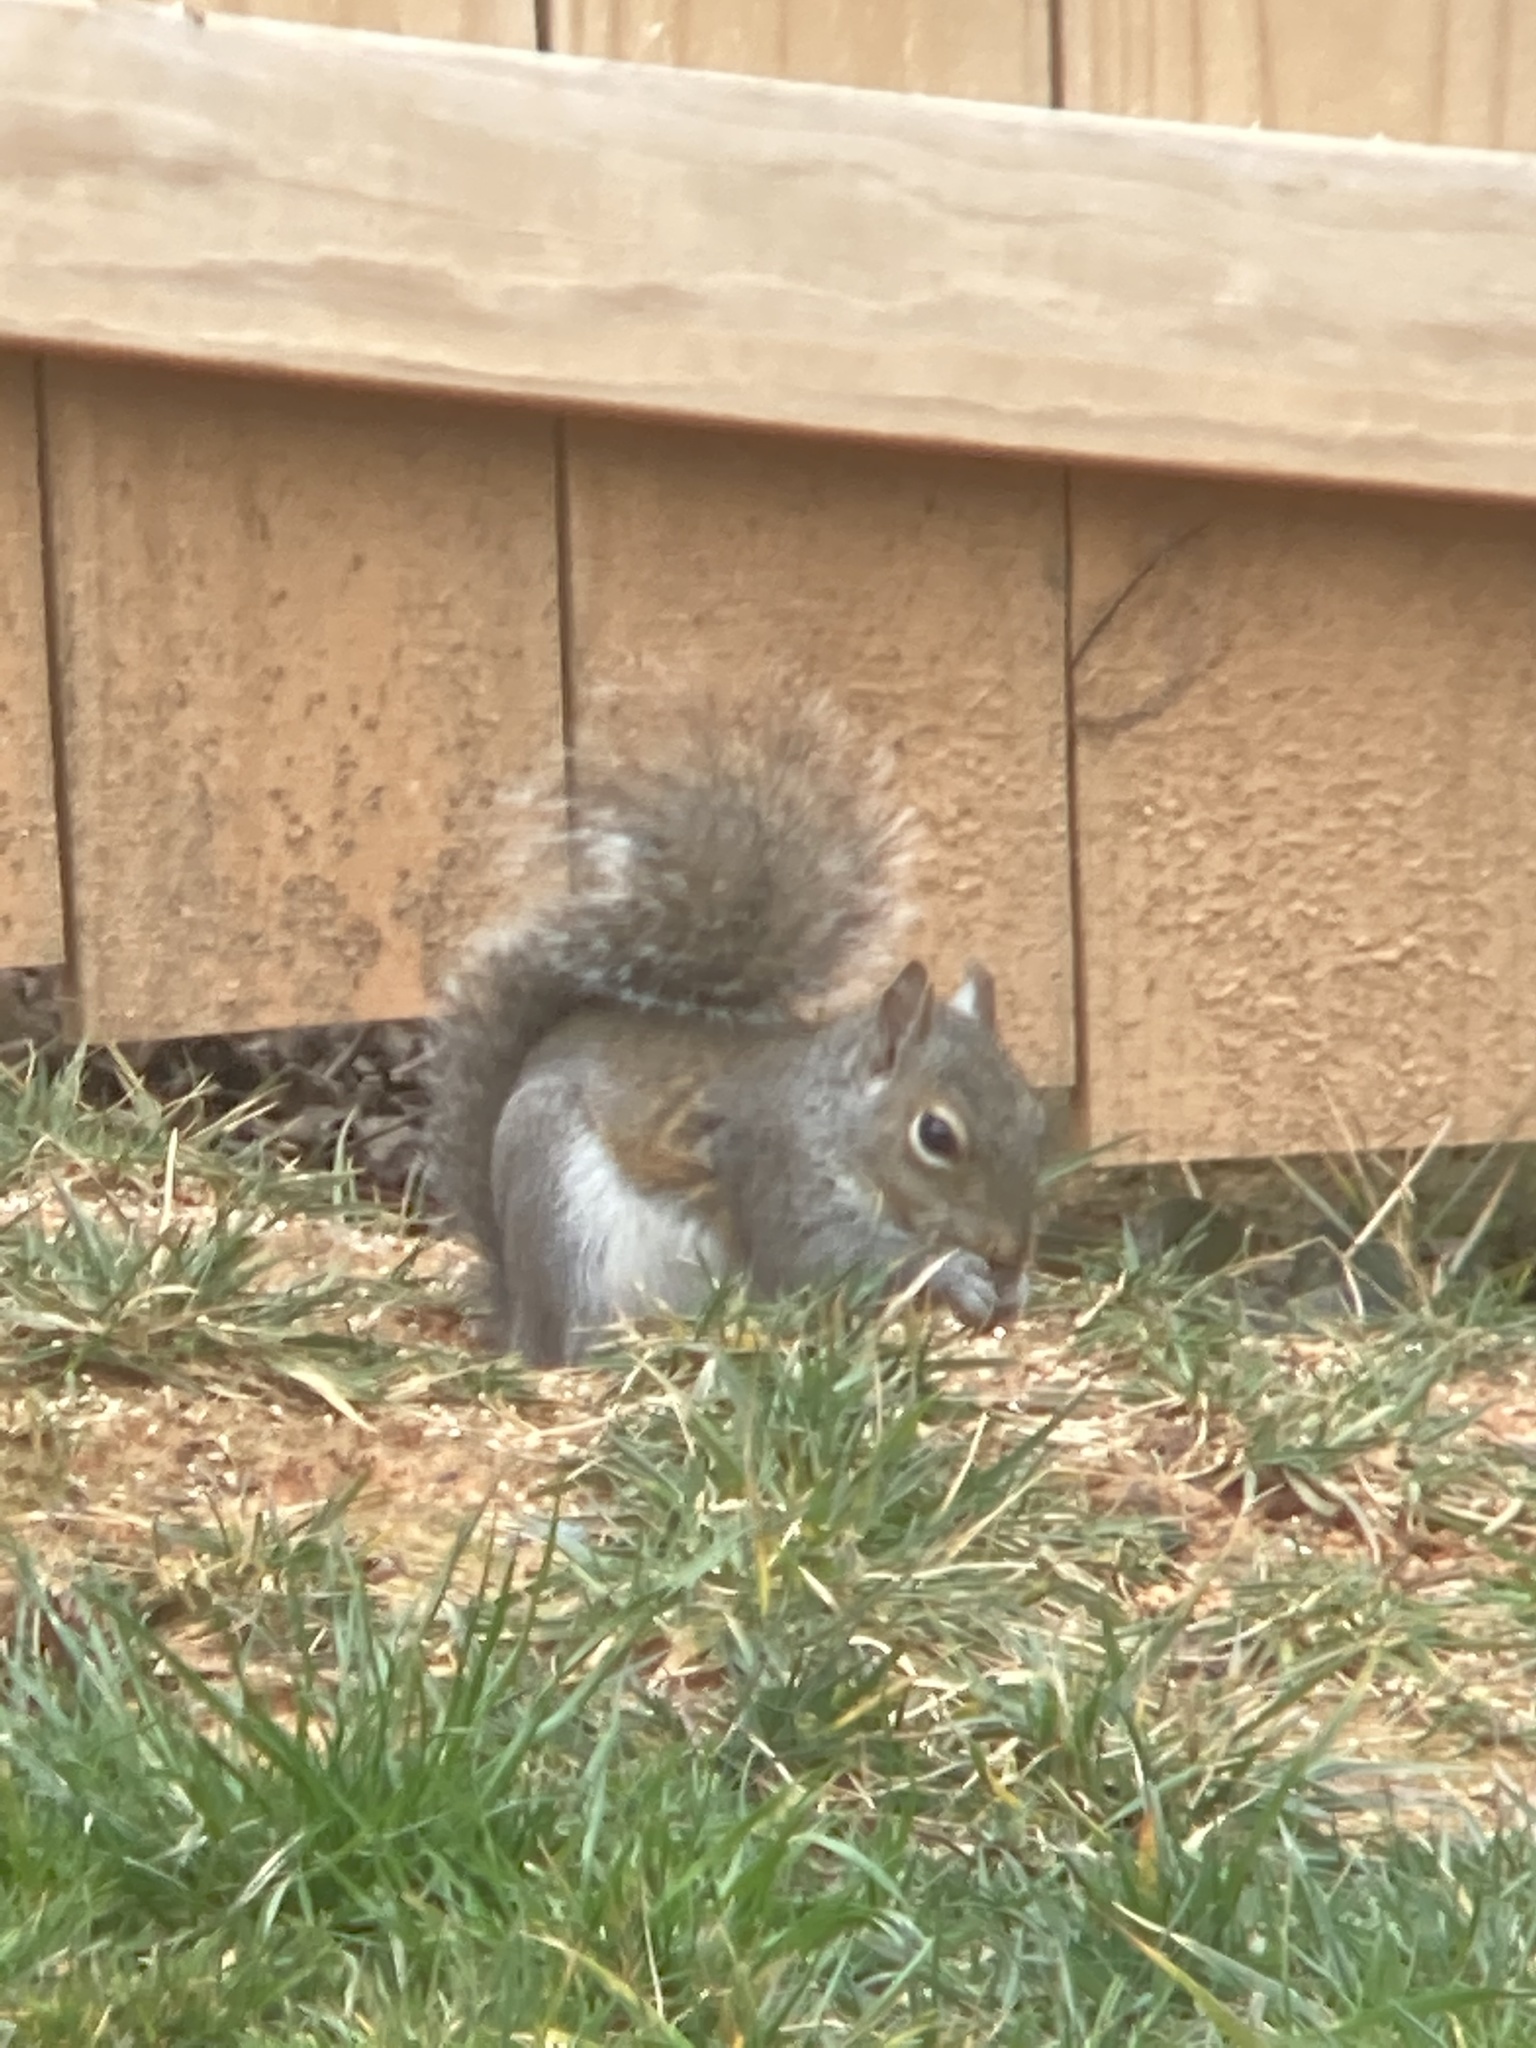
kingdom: Animalia
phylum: Chordata
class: Mammalia
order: Rodentia
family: Sciuridae
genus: Sciurus
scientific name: Sciurus carolinensis
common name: Eastern gray squirrel
